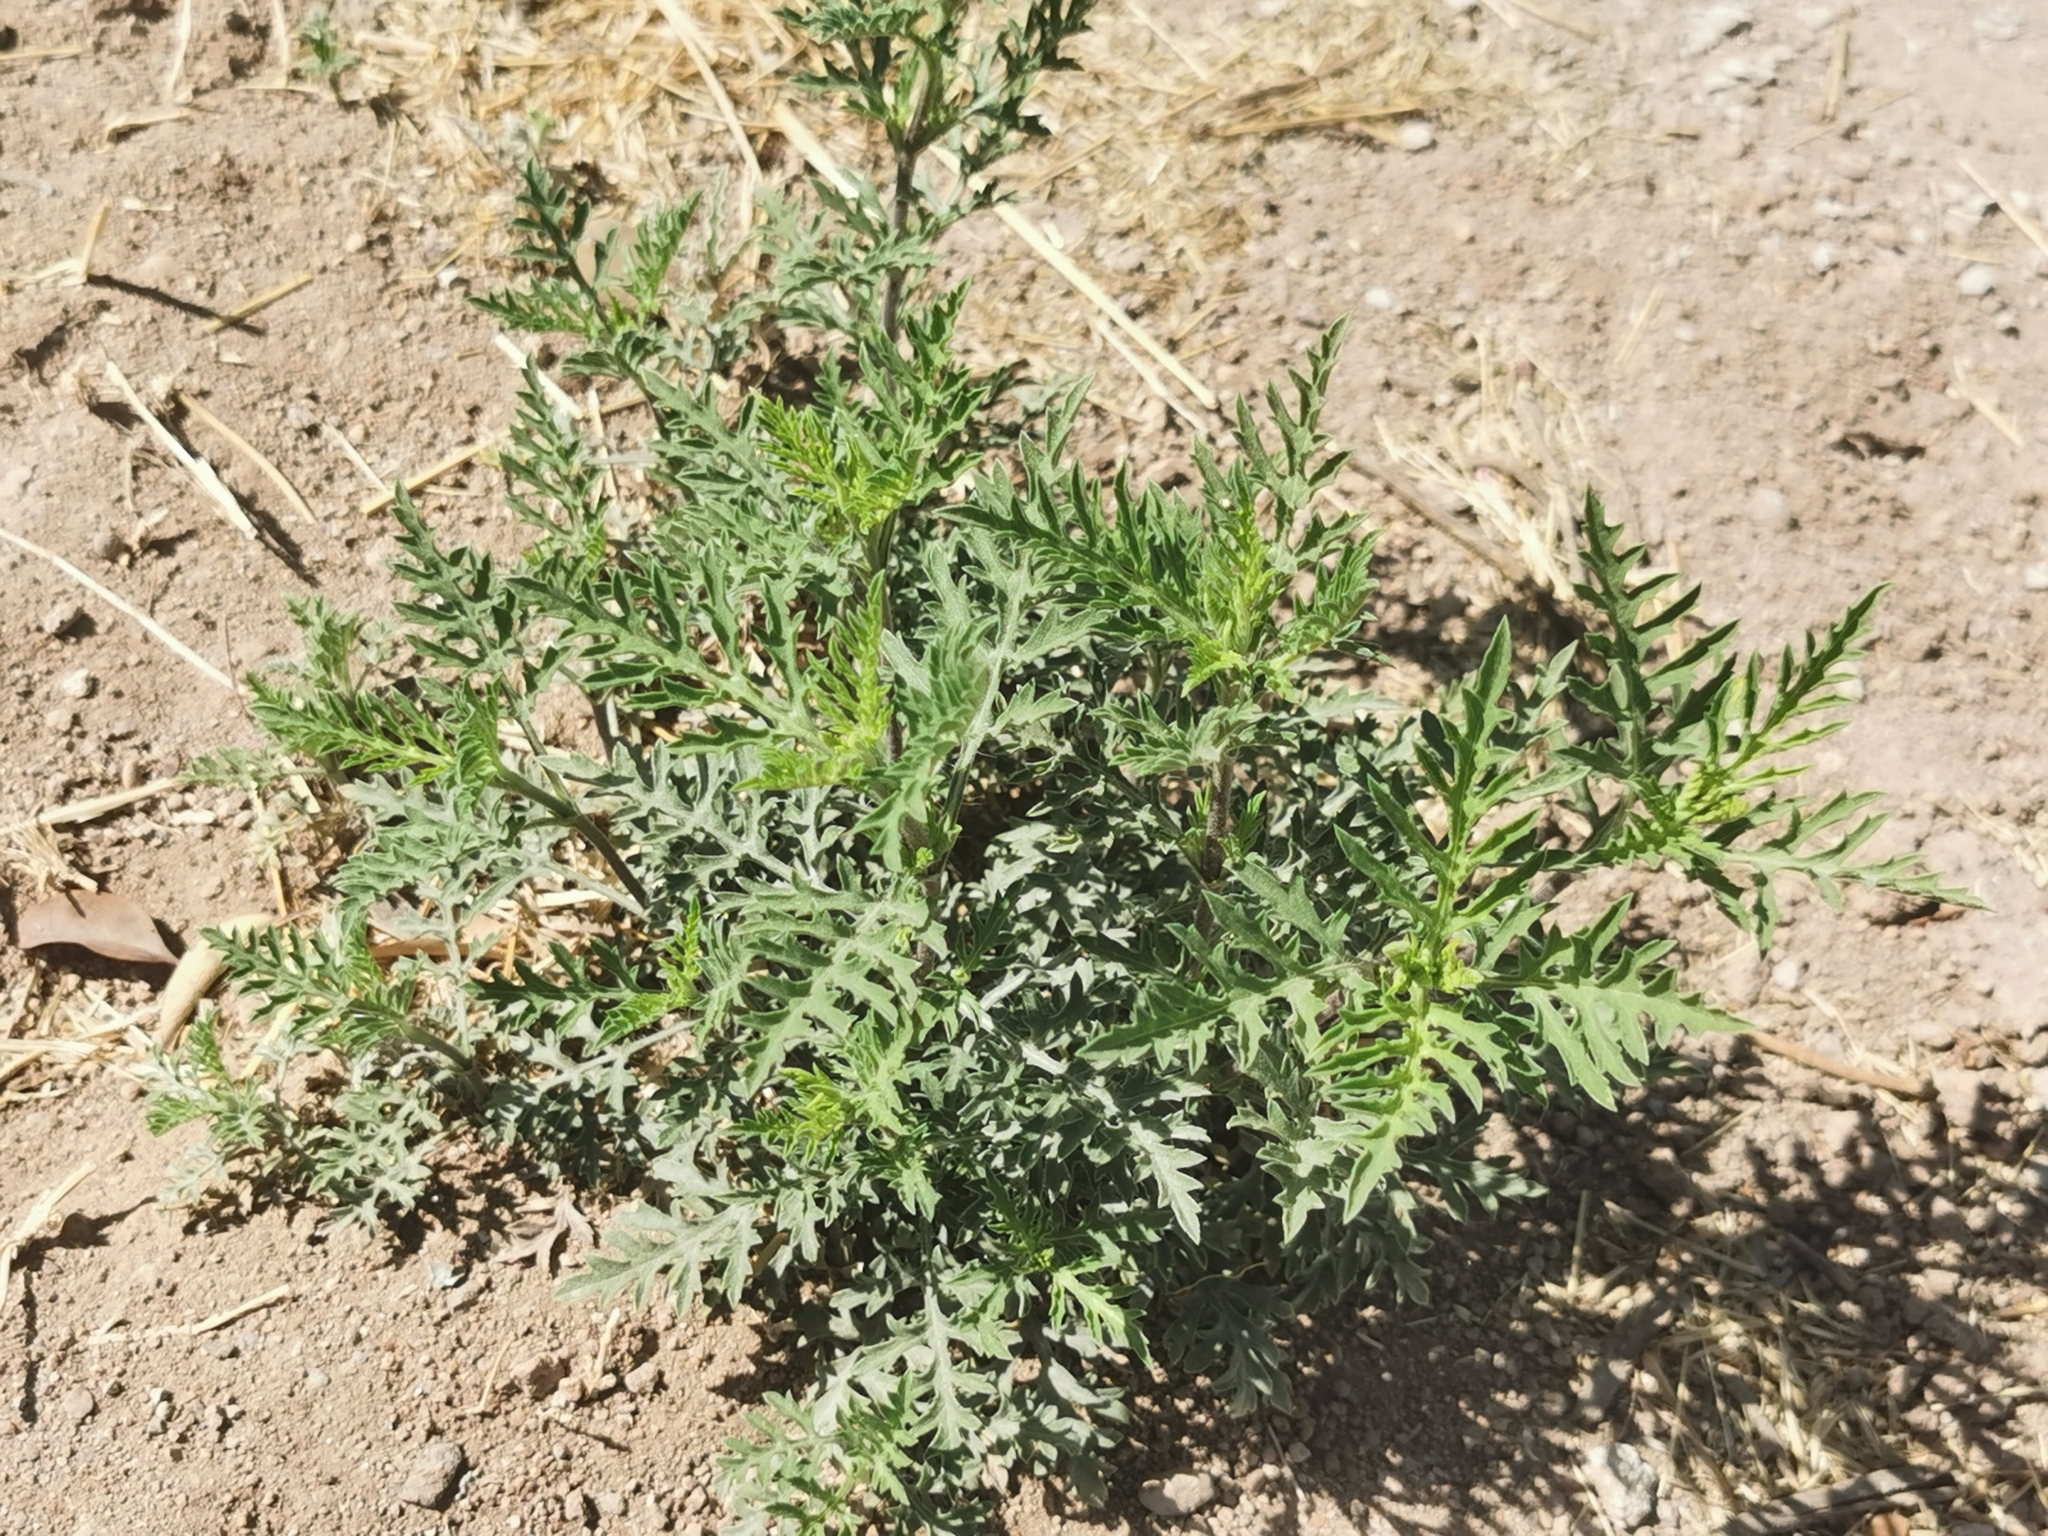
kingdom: Plantae
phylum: Tracheophyta
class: Magnoliopsida
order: Asterales
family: Asteraceae
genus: Ambrosia
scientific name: Ambrosia artemisiifolia
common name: Annual ragweed
